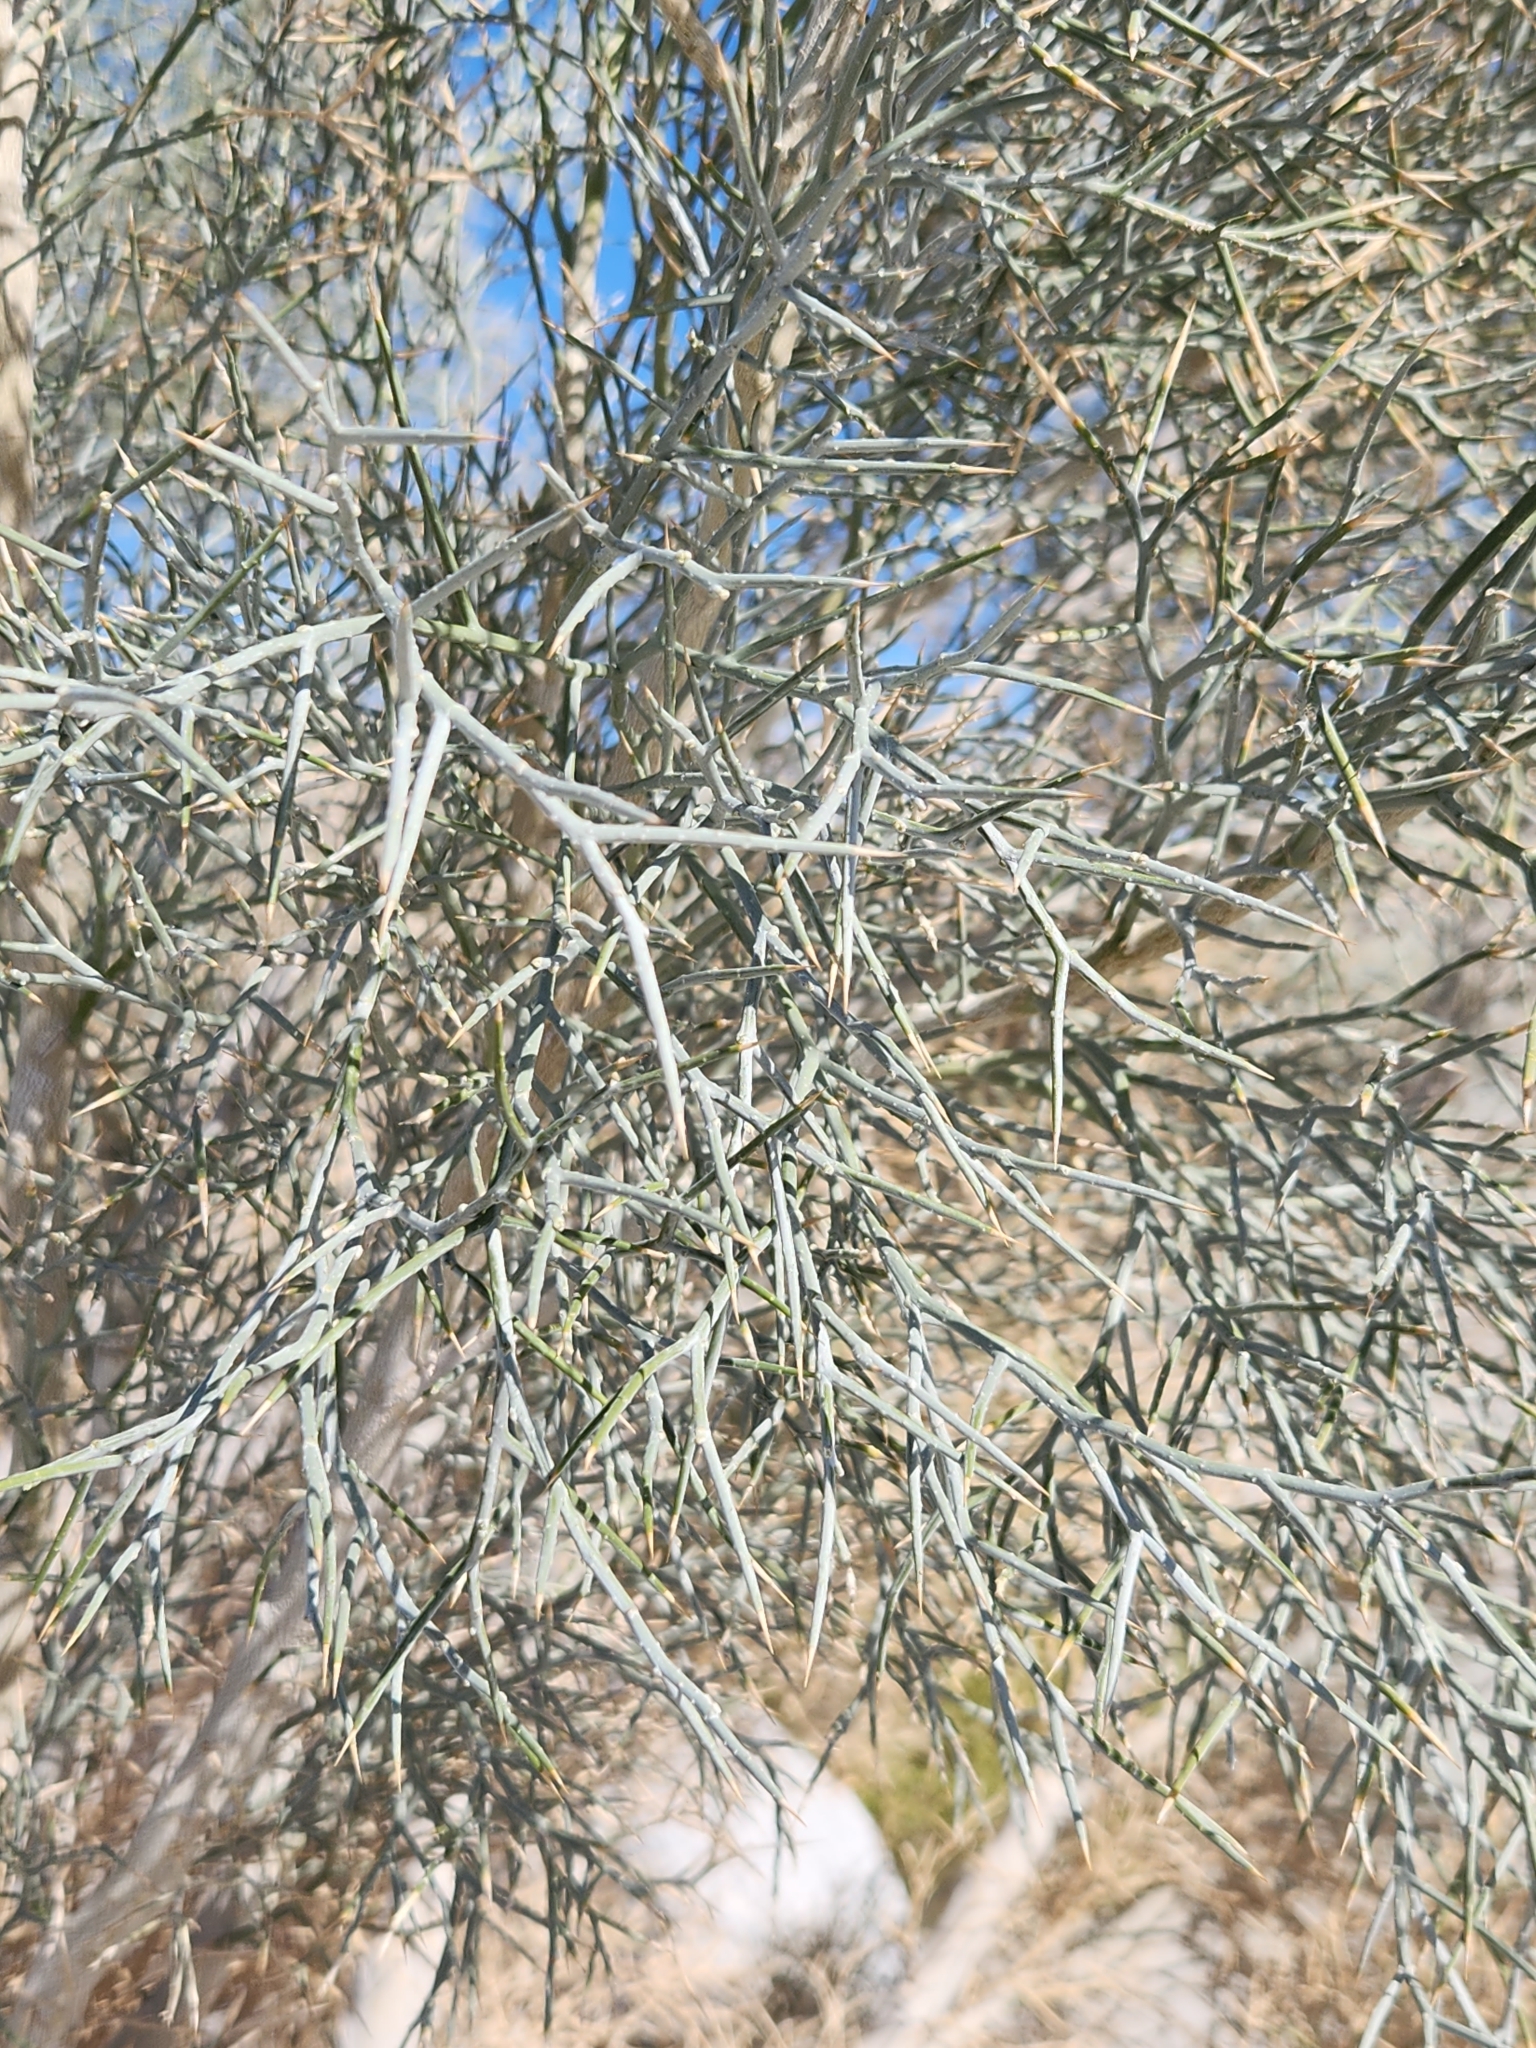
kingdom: Plantae
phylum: Tracheophyta
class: Magnoliopsida
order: Fabales
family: Fabaceae
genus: Psorothamnus
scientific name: Psorothamnus spinosus
